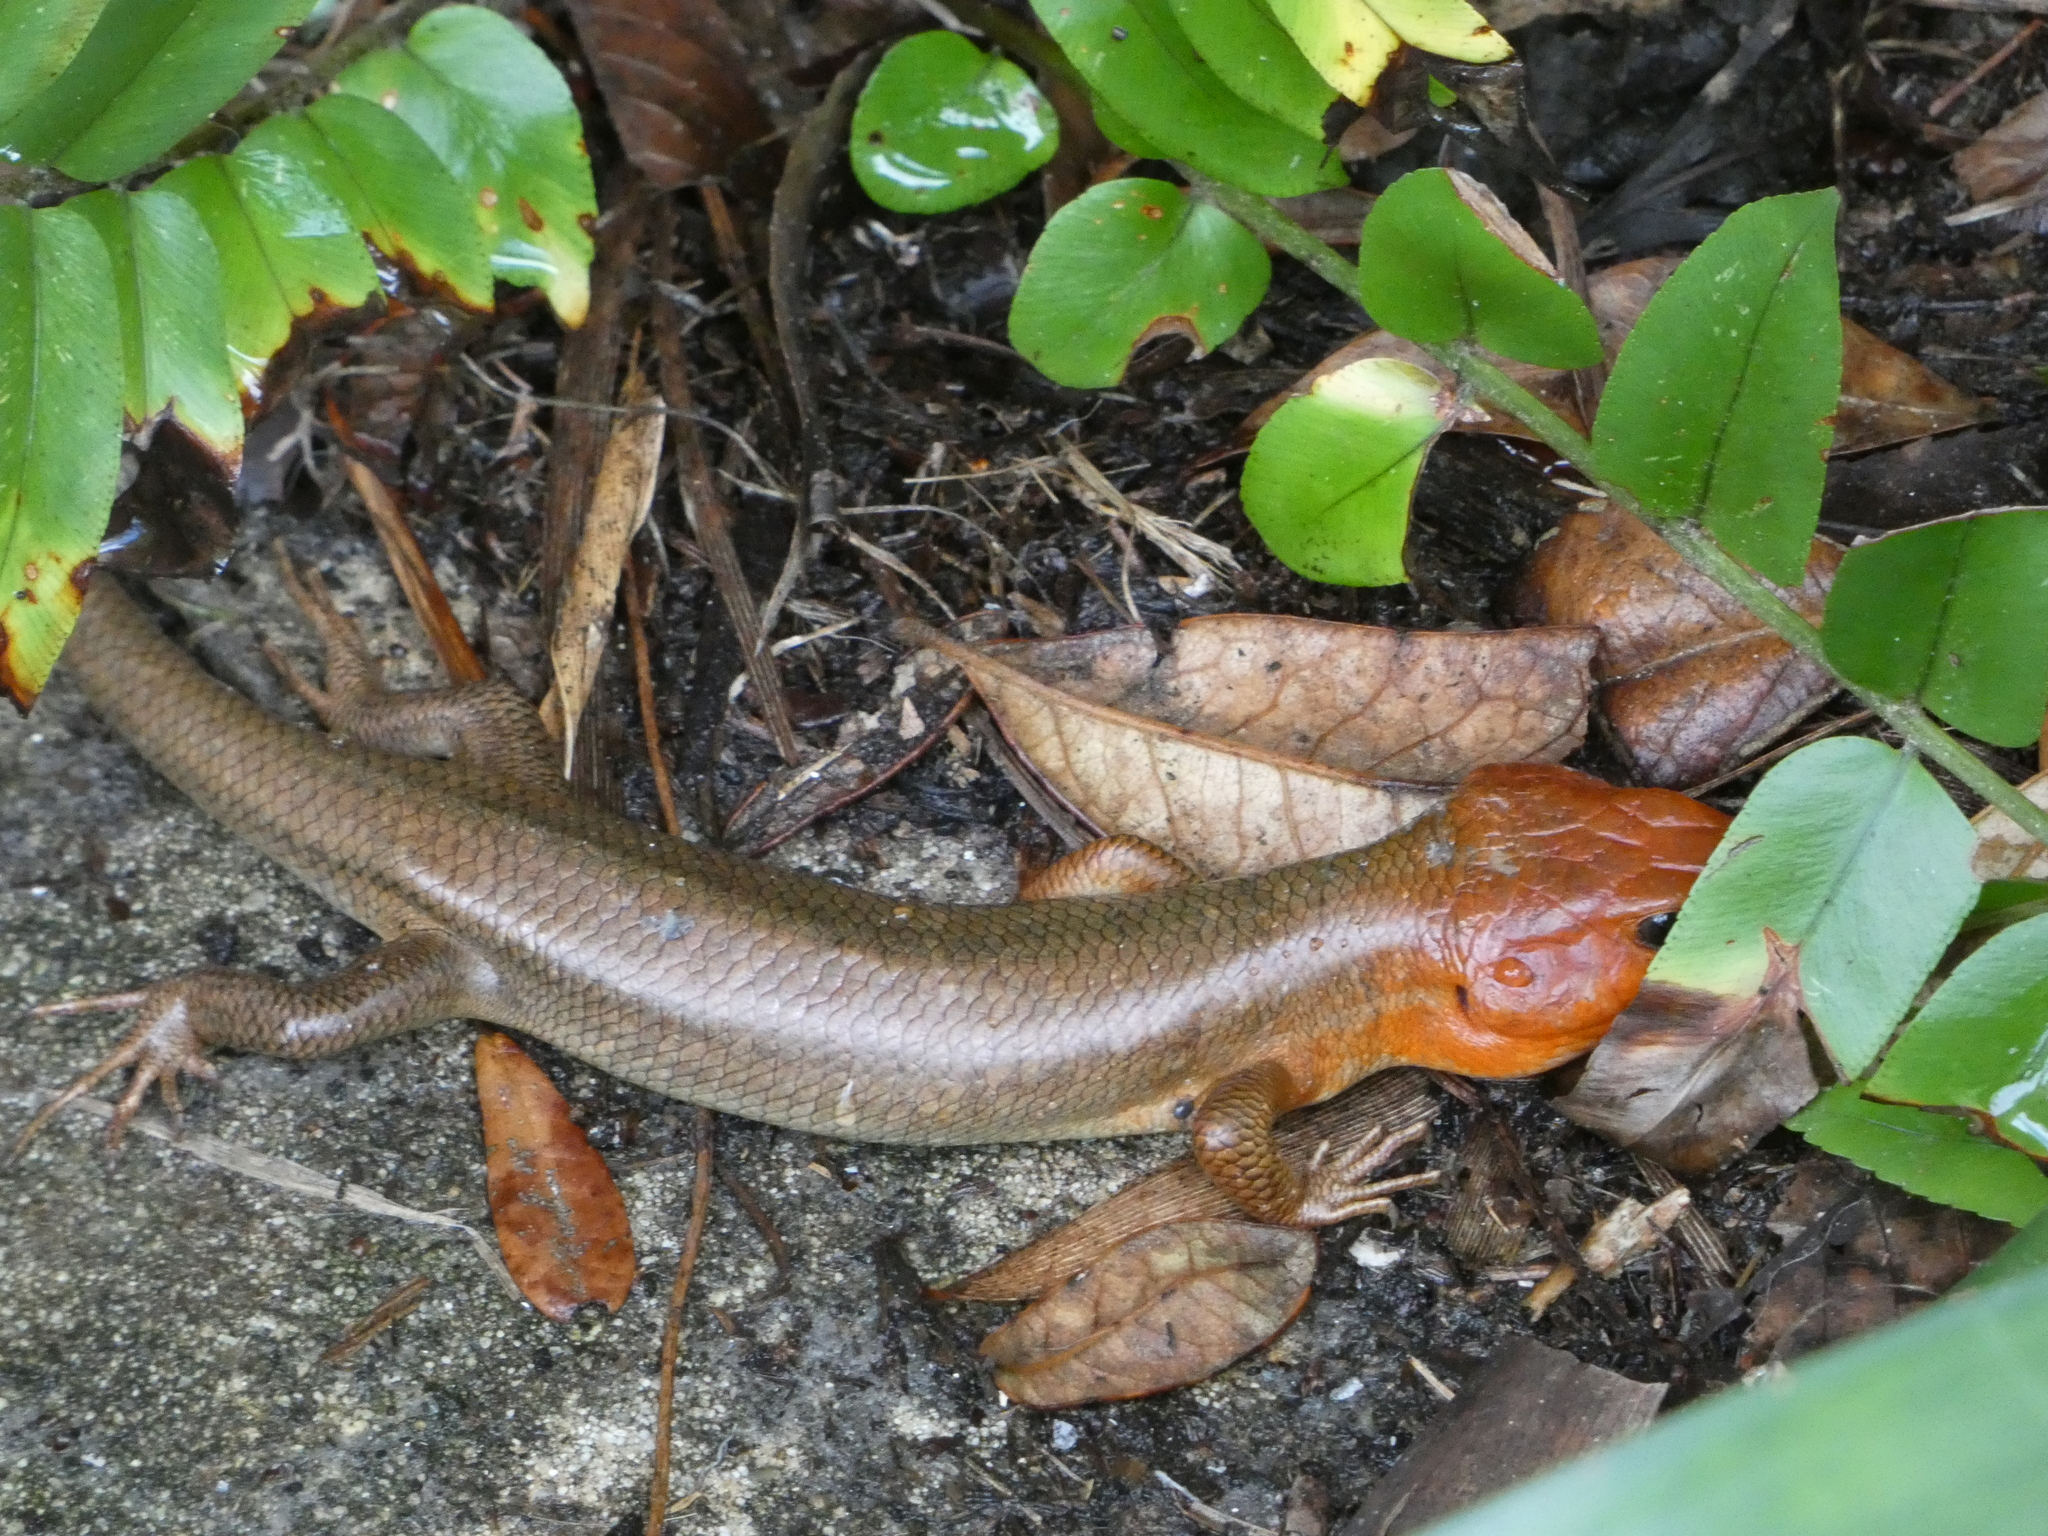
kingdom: Animalia
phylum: Chordata
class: Squamata
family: Scincidae
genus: Plestiodon
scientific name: Plestiodon laticeps
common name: Broadhead skink
